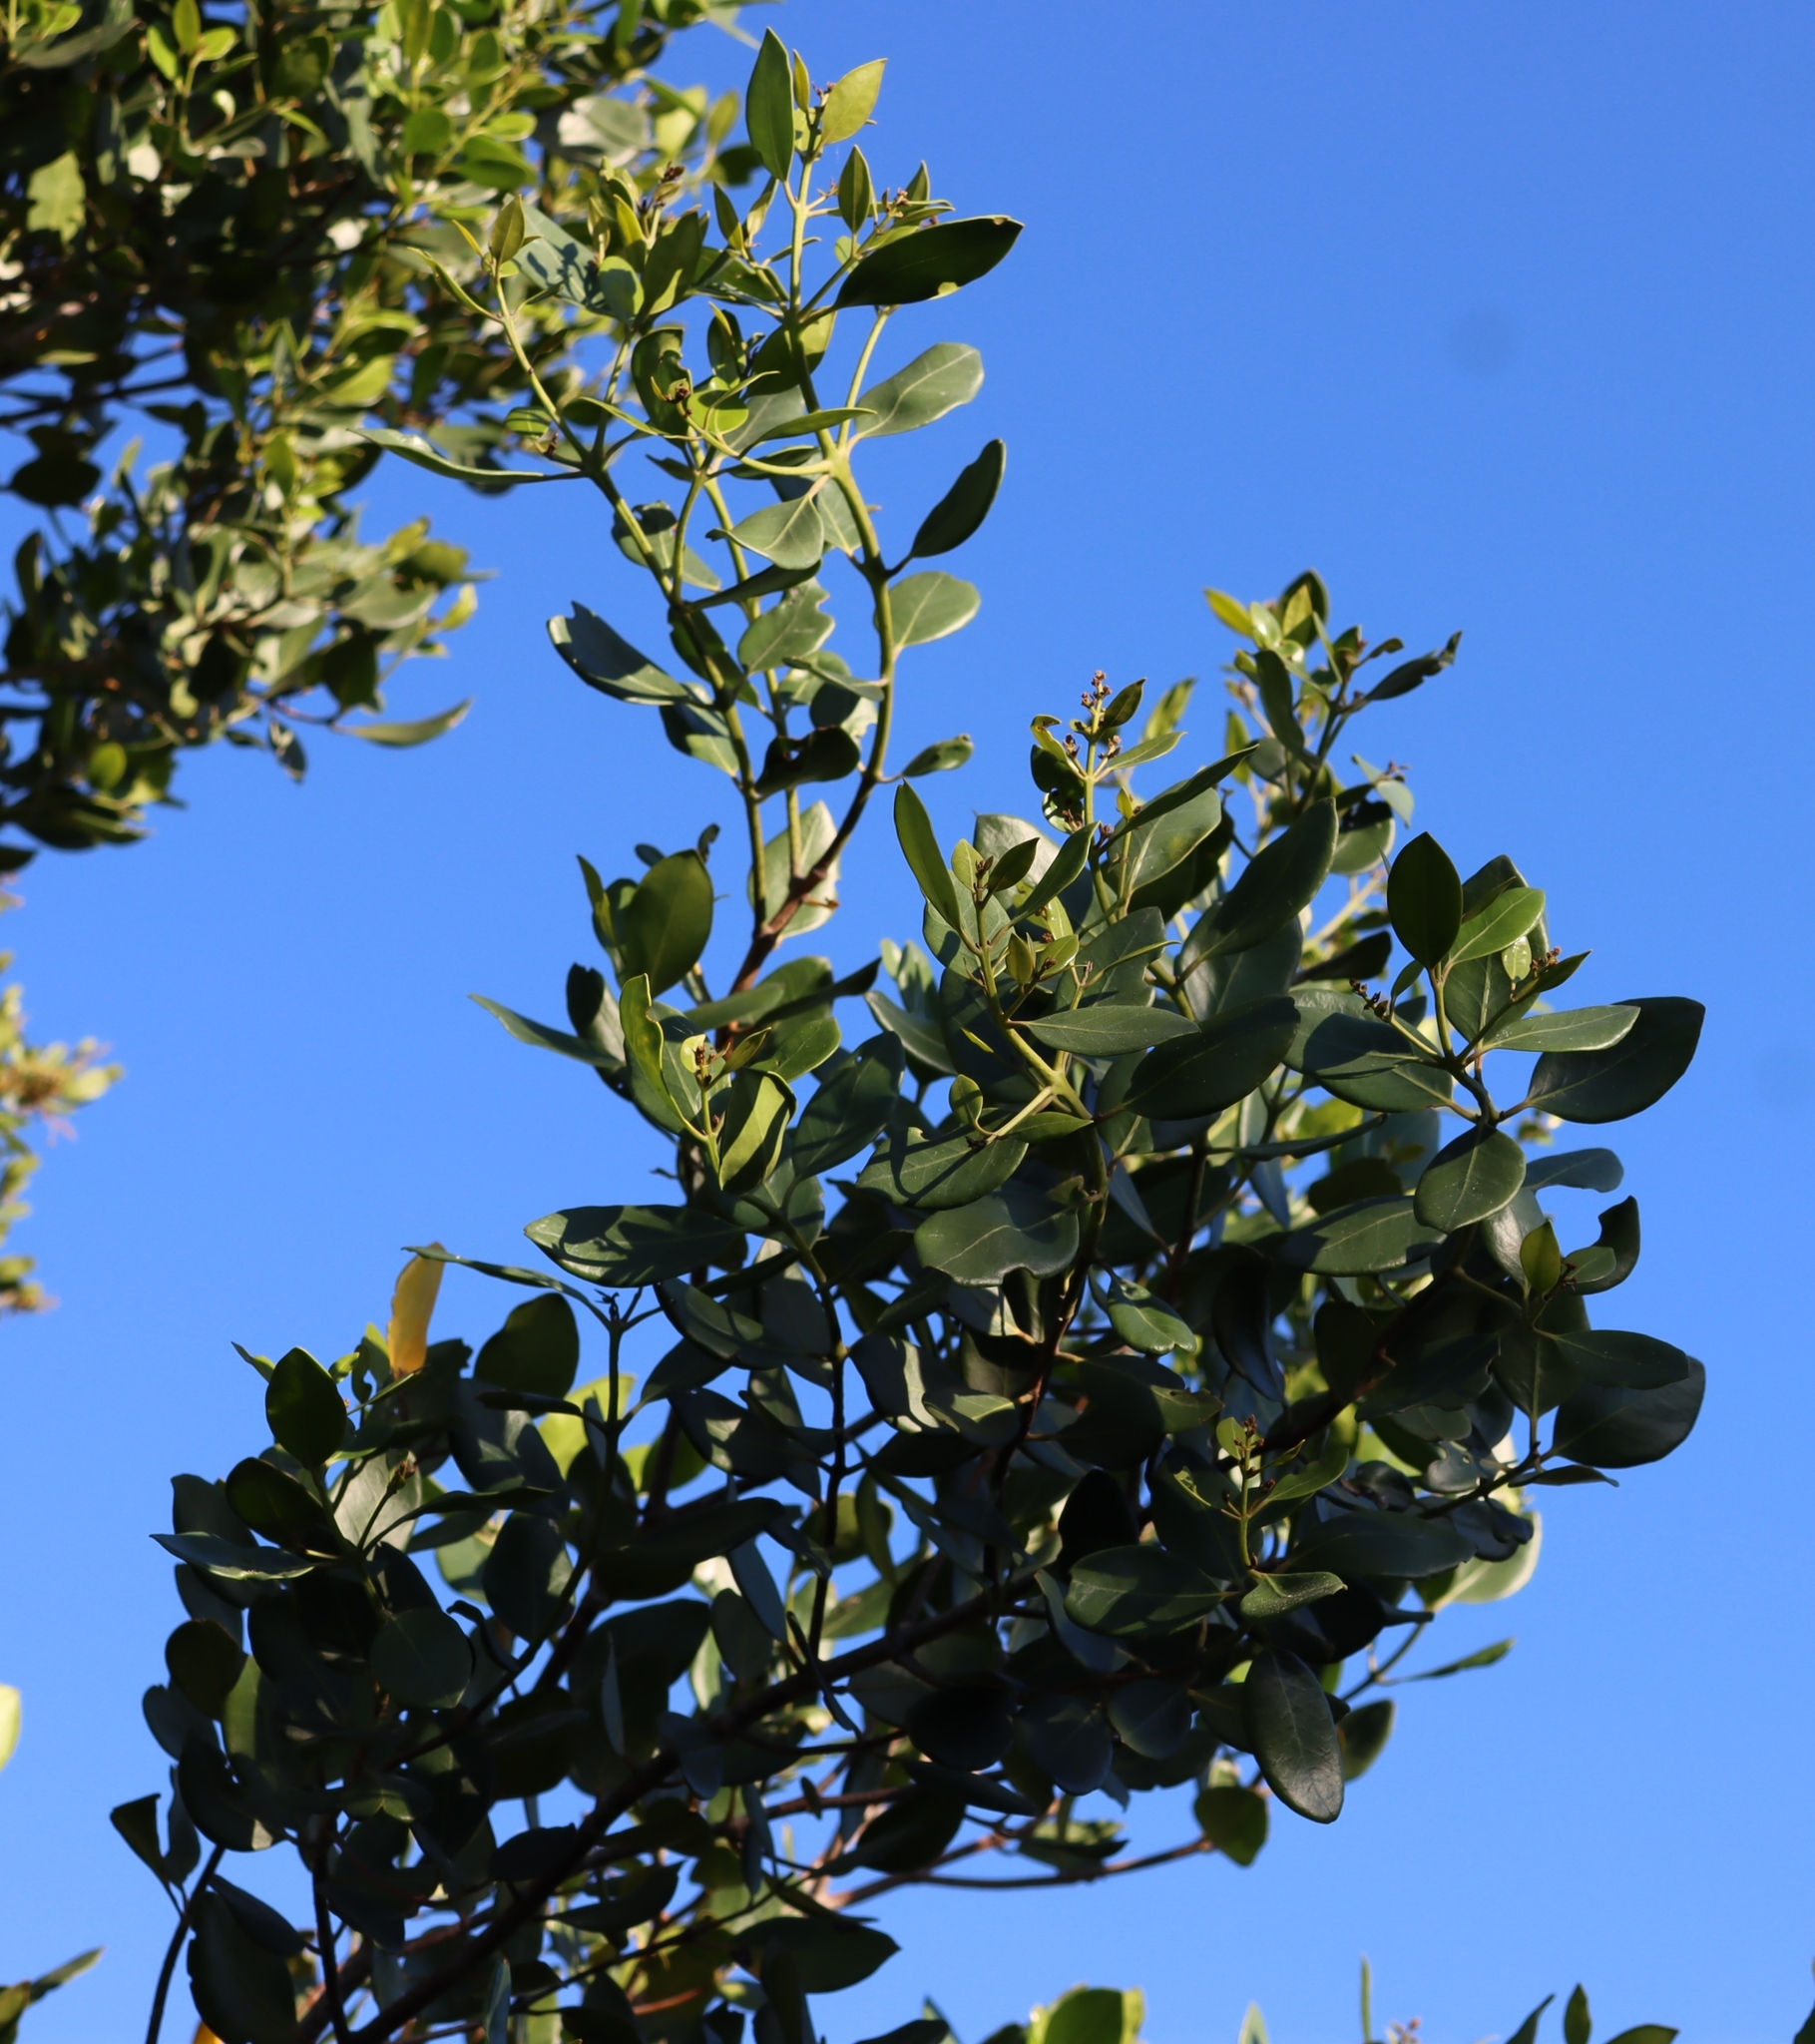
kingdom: Plantae
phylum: Tracheophyta
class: Magnoliopsida
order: Lamiales
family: Oleaceae
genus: Olea
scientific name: Olea capensis
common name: Black ironwood
